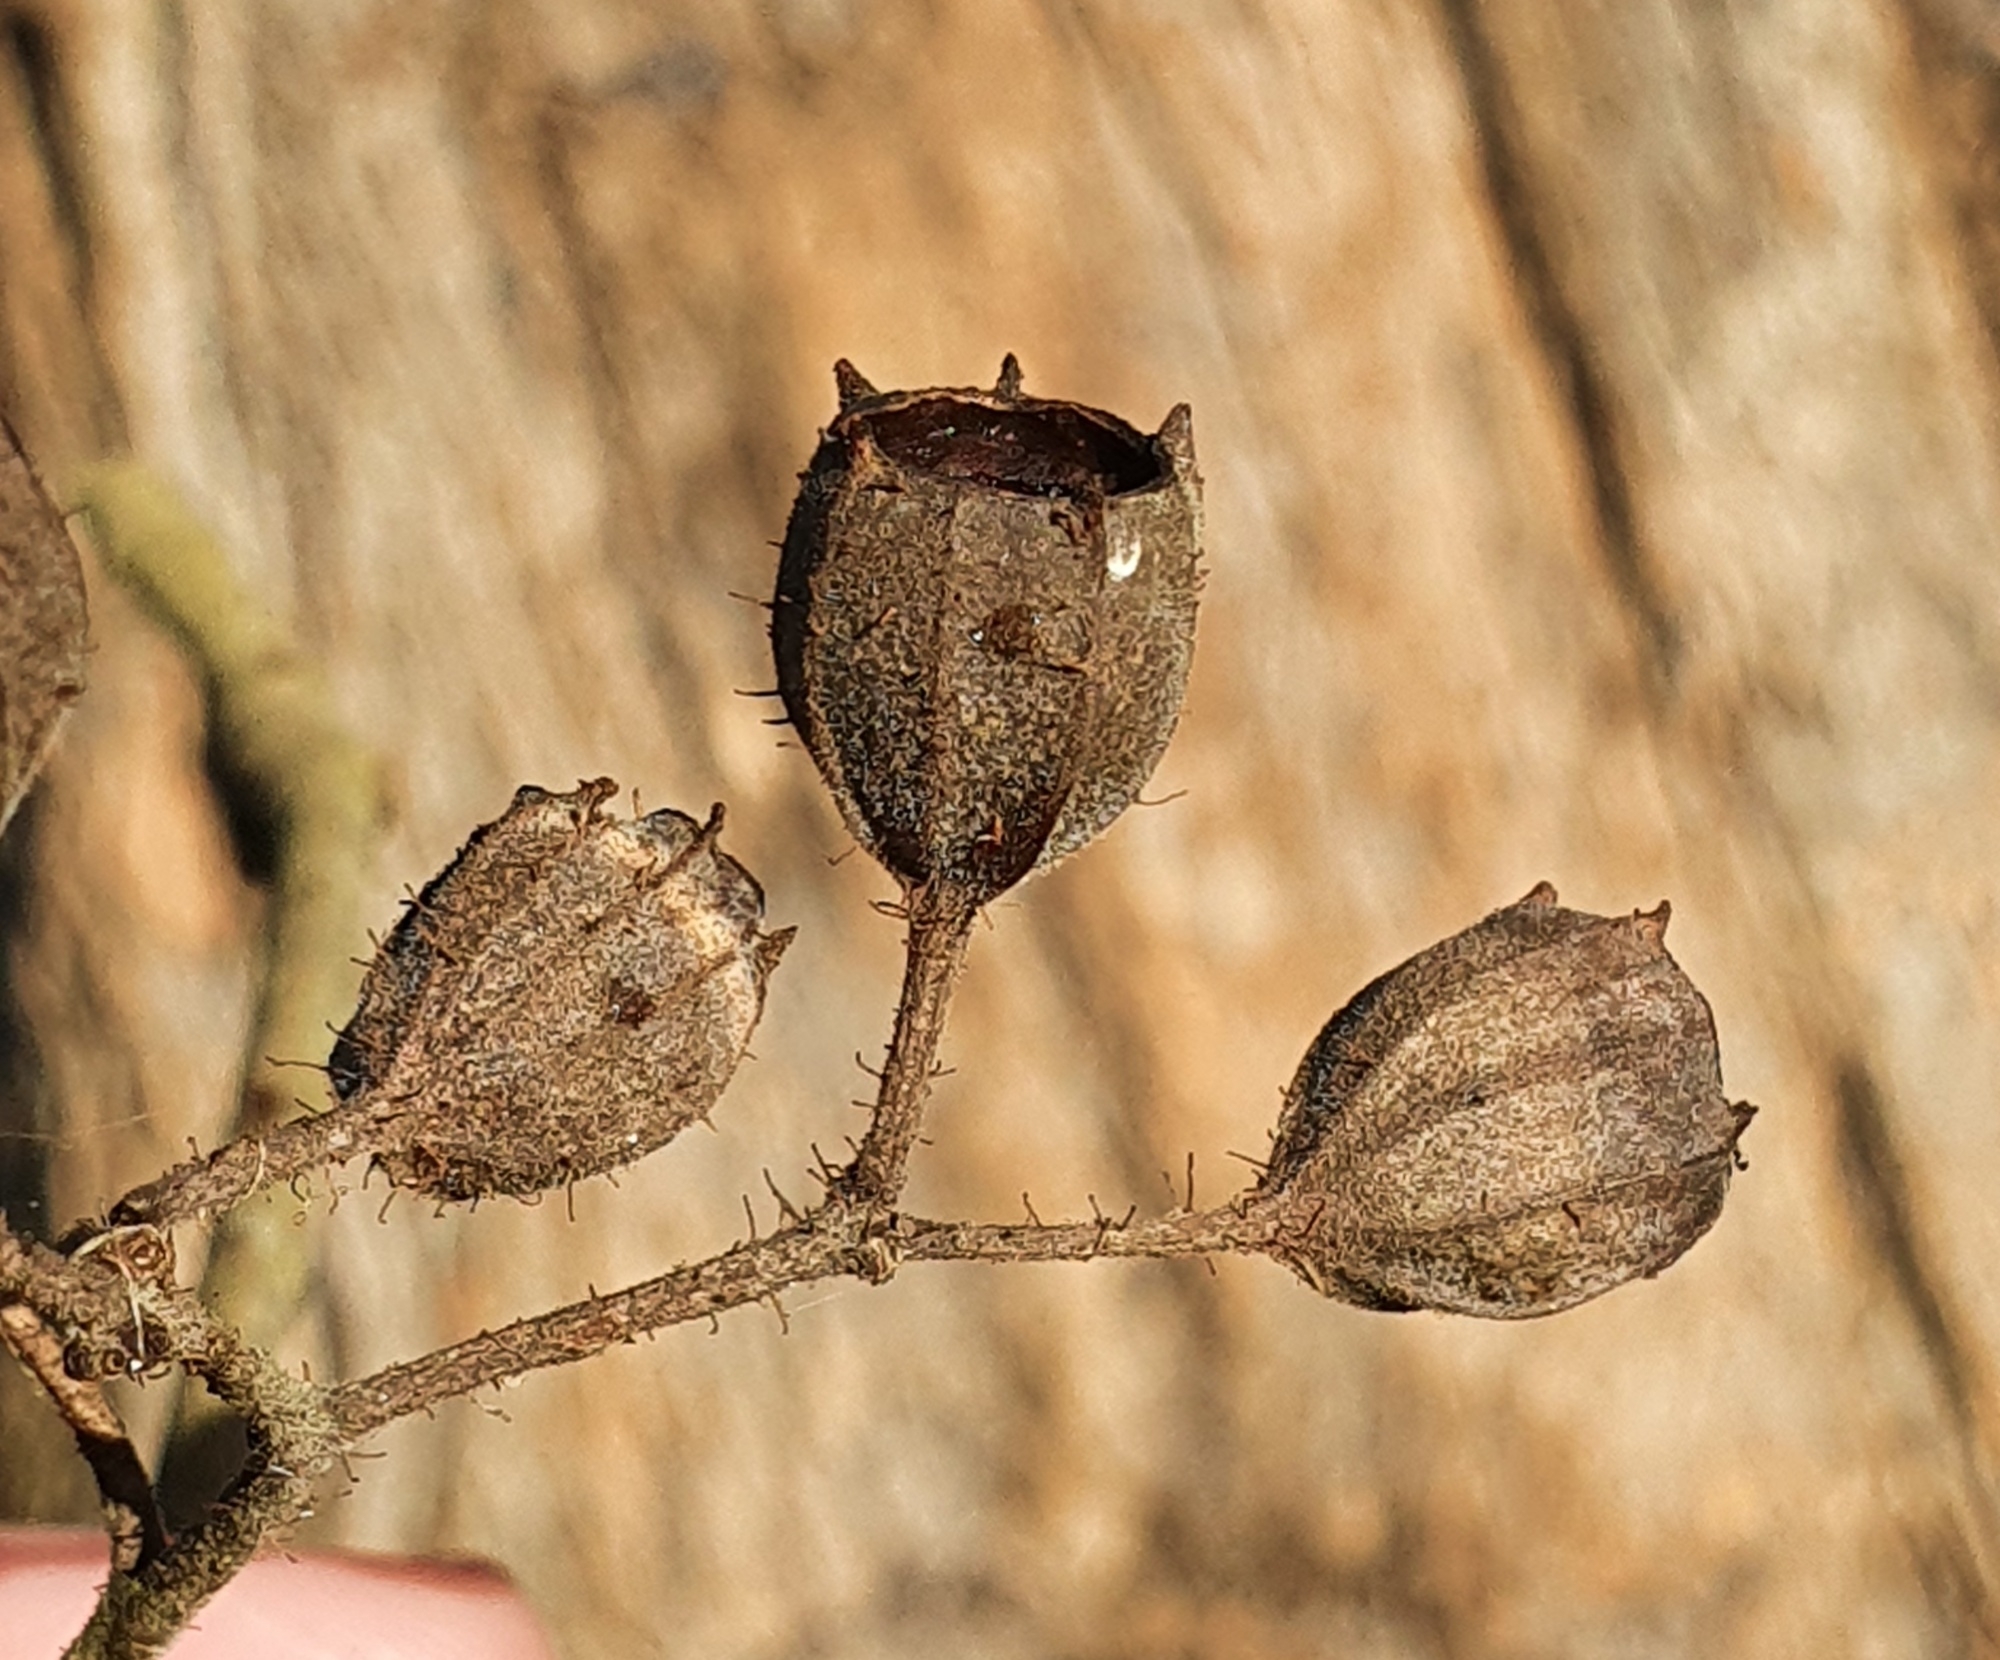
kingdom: Plantae
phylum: Tracheophyta
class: Magnoliopsida
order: Myrtales
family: Myrtaceae
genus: Angophora
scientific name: Angophora floribunda
